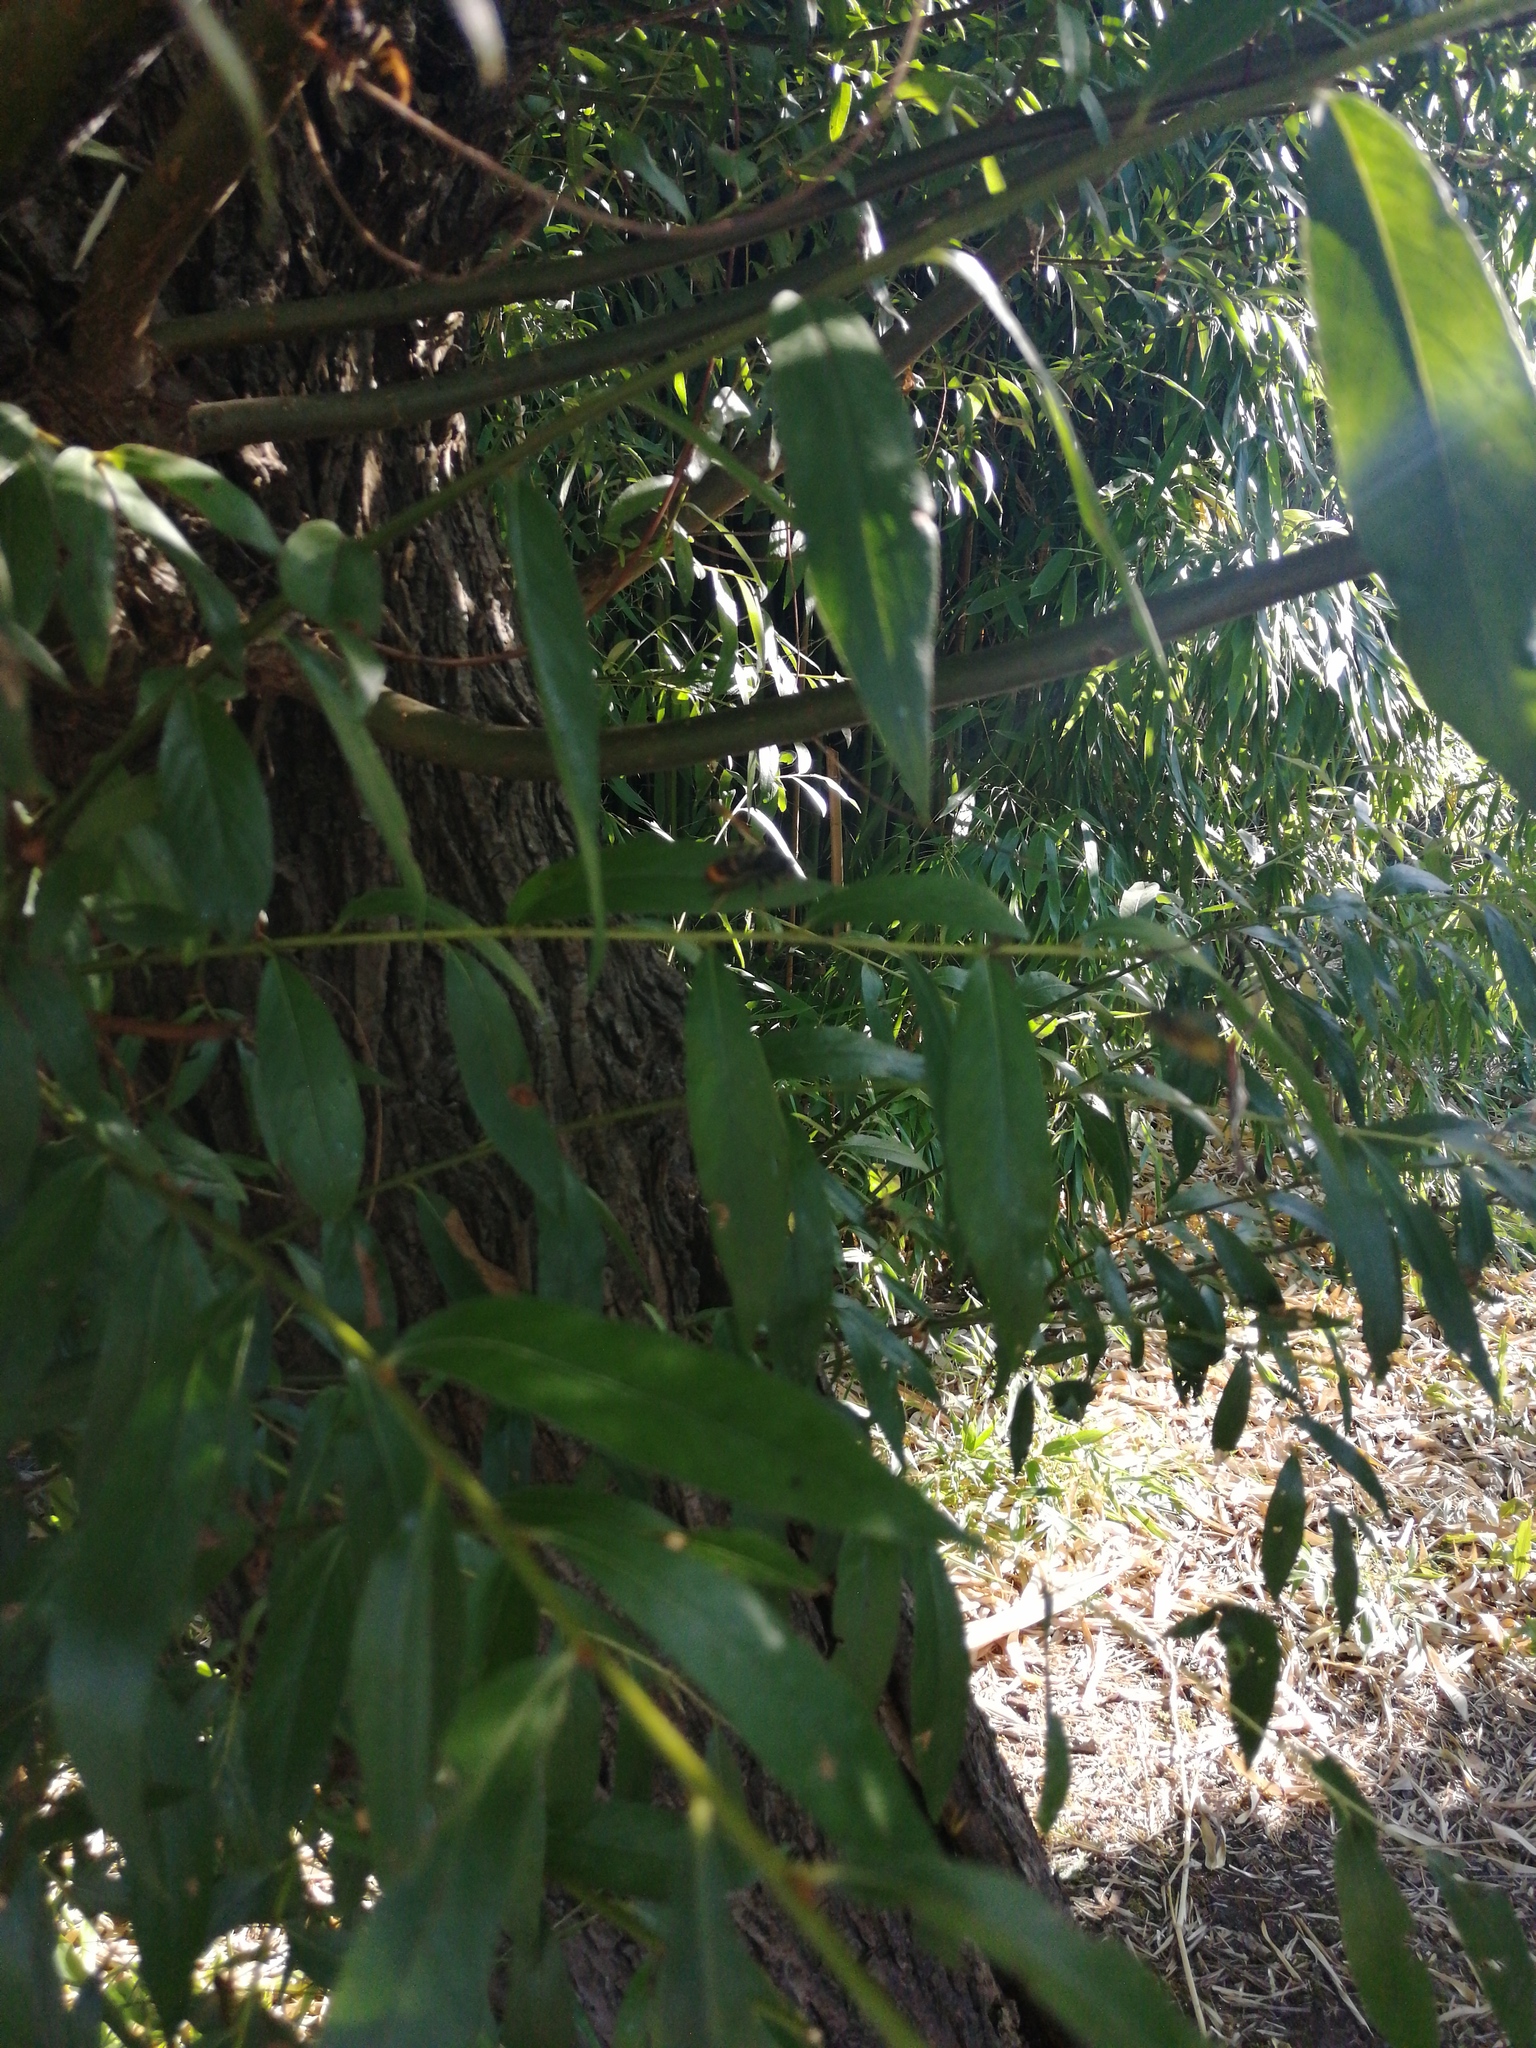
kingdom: Animalia
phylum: Arthropoda
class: Insecta
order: Hymenoptera
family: Vespidae
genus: Vespa
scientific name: Vespa velutina
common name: Asian hornet
